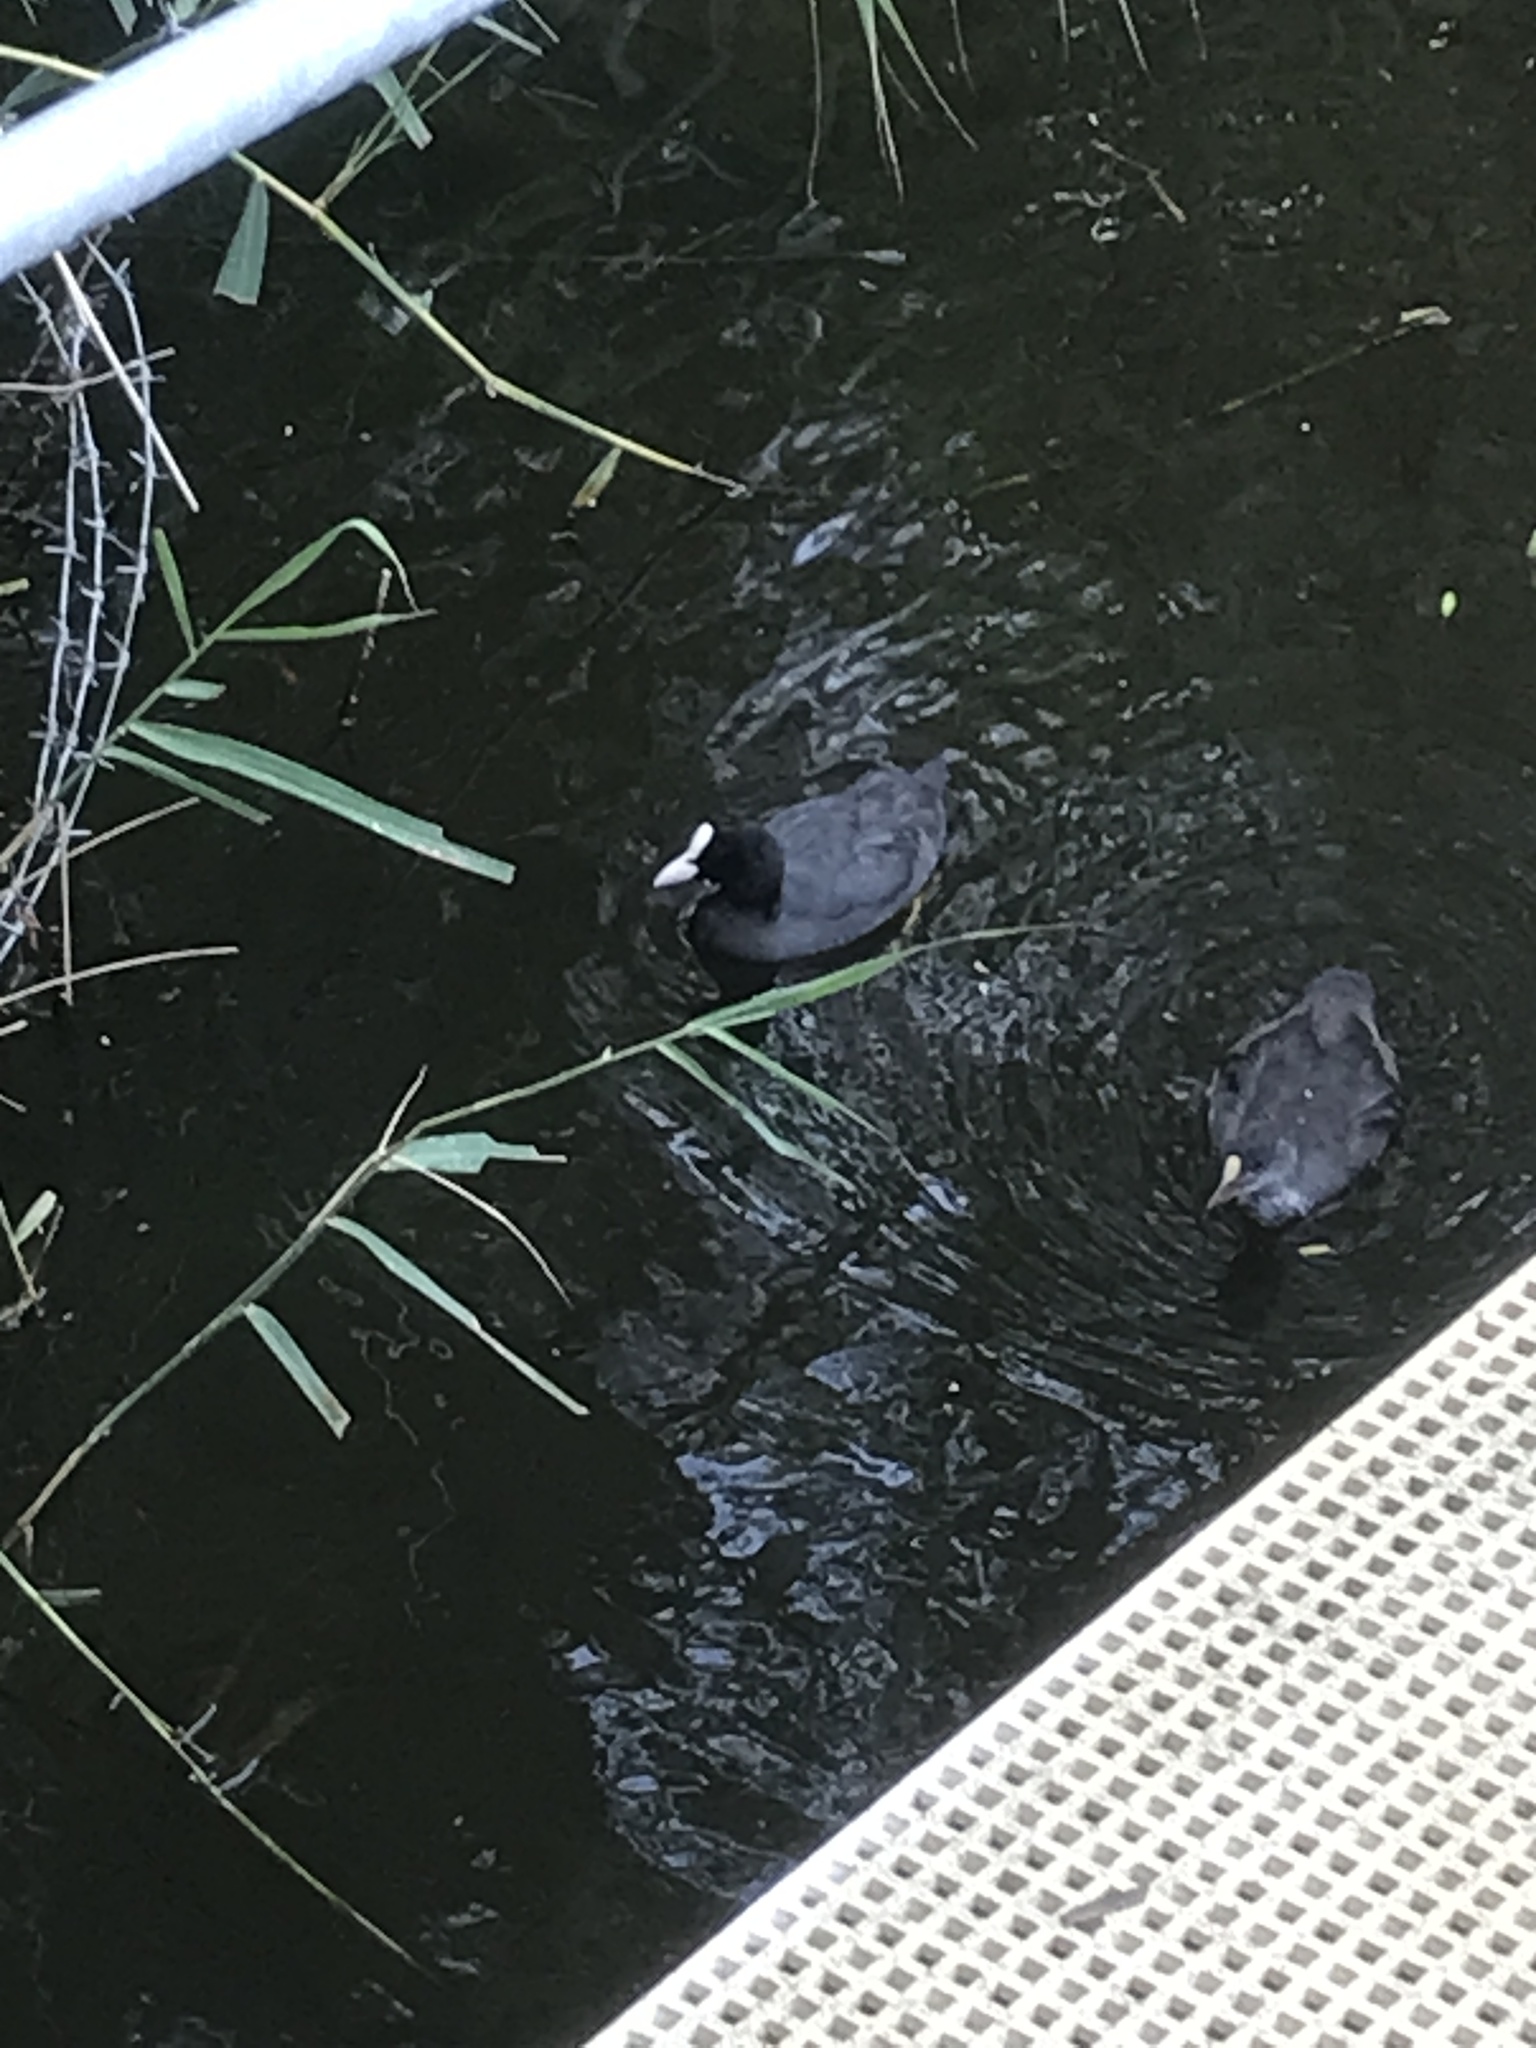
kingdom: Animalia
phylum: Chordata
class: Aves
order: Gruiformes
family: Rallidae
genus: Fulica
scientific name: Fulica atra
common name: Eurasian coot
